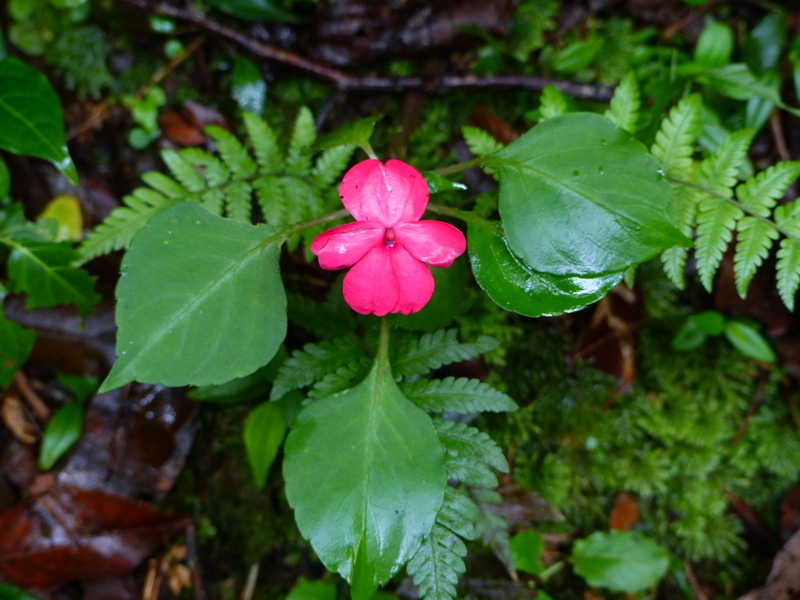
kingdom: Plantae
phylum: Tracheophyta
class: Magnoliopsida
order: Ericales
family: Balsaminaceae
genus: Impatiens
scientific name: Impatiens walleriana
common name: Buzzy lizzy
